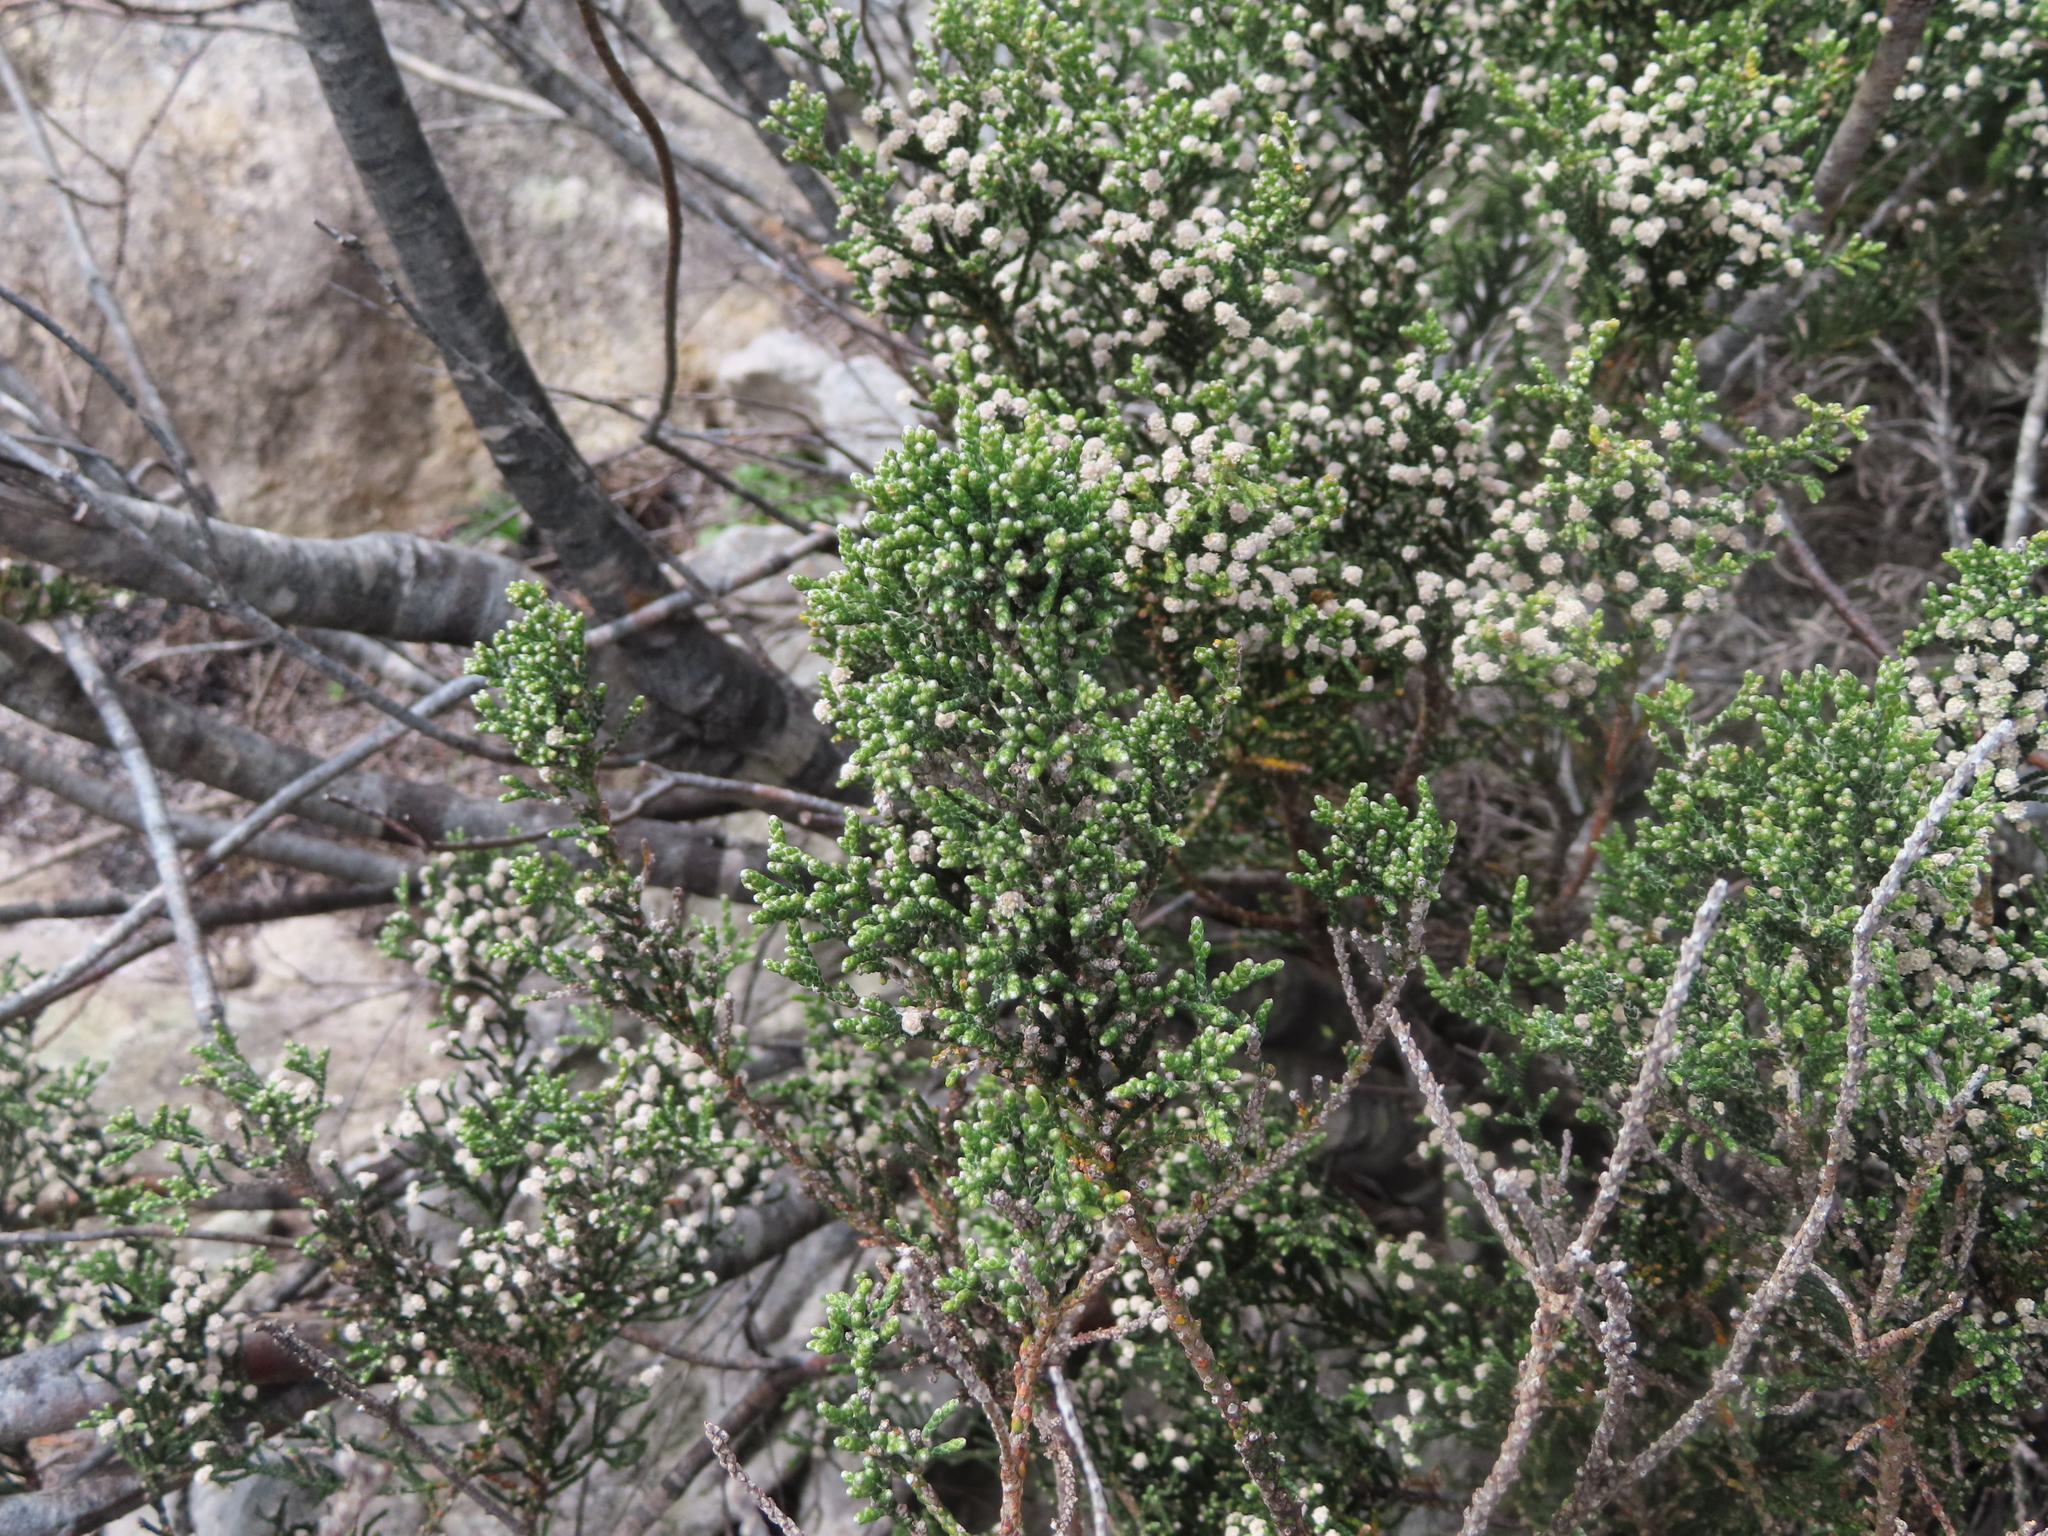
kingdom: Plantae
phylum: Tracheophyta
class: Magnoliopsida
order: Bruniales
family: Bruniaceae
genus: Brunia
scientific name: Brunia microphylla
